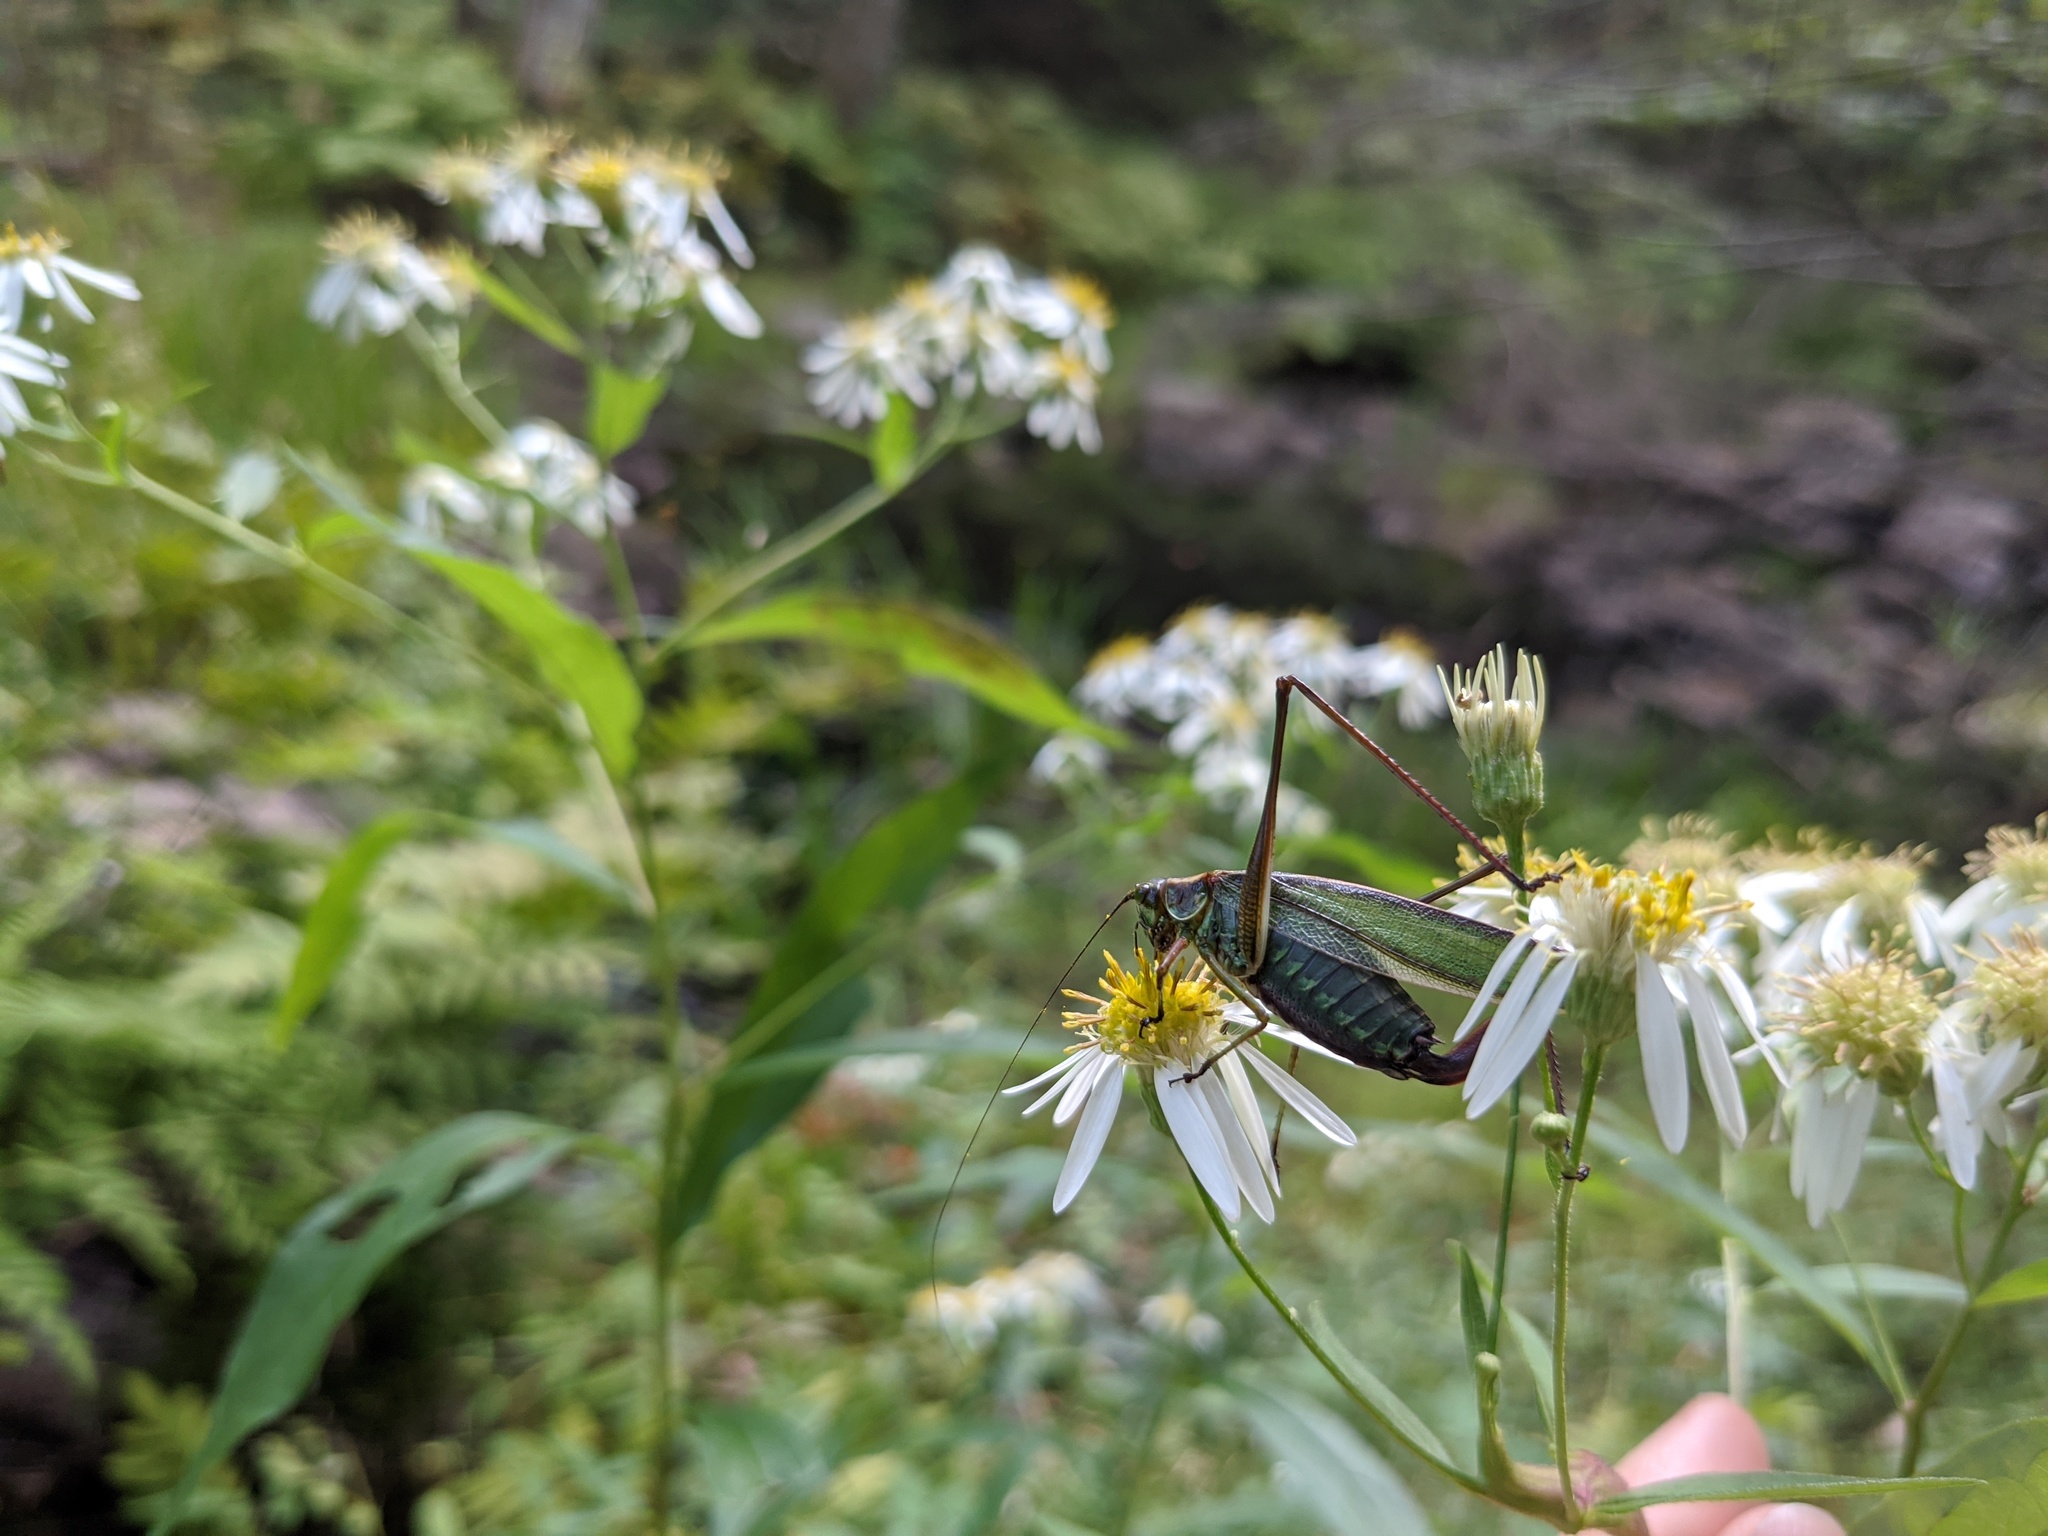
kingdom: Animalia
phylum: Arthropoda
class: Insecta
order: Orthoptera
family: Tettigoniidae
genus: Scudderia
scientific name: Scudderia fasciata
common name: Treetop bush katydid
